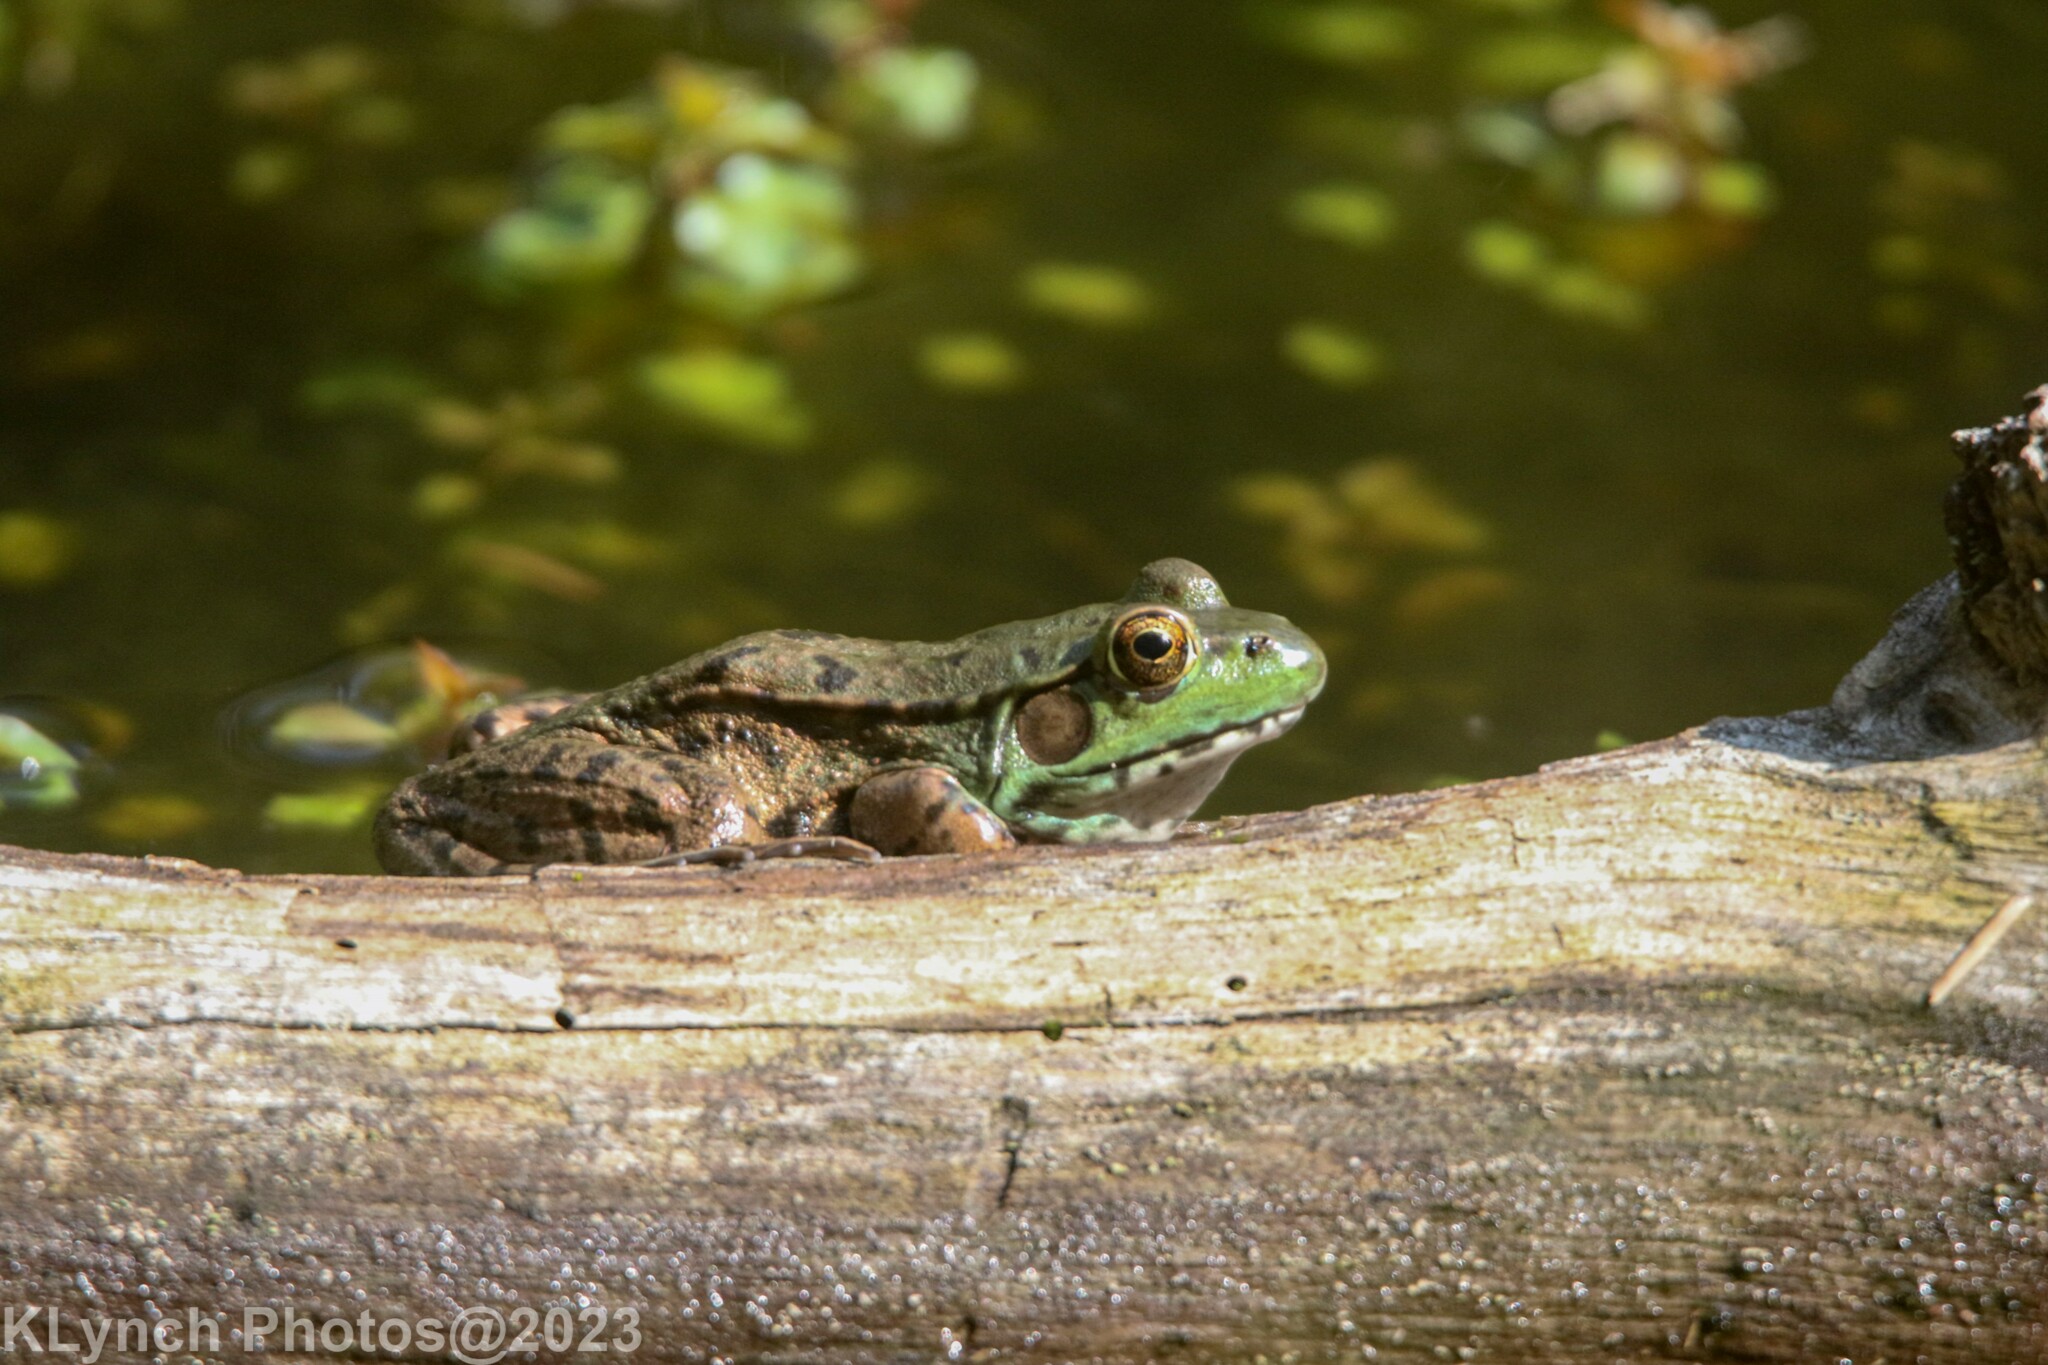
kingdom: Animalia
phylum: Chordata
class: Amphibia
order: Anura
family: Ranidae
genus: Lithobates
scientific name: Lithobates clamitans
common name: Green frog
